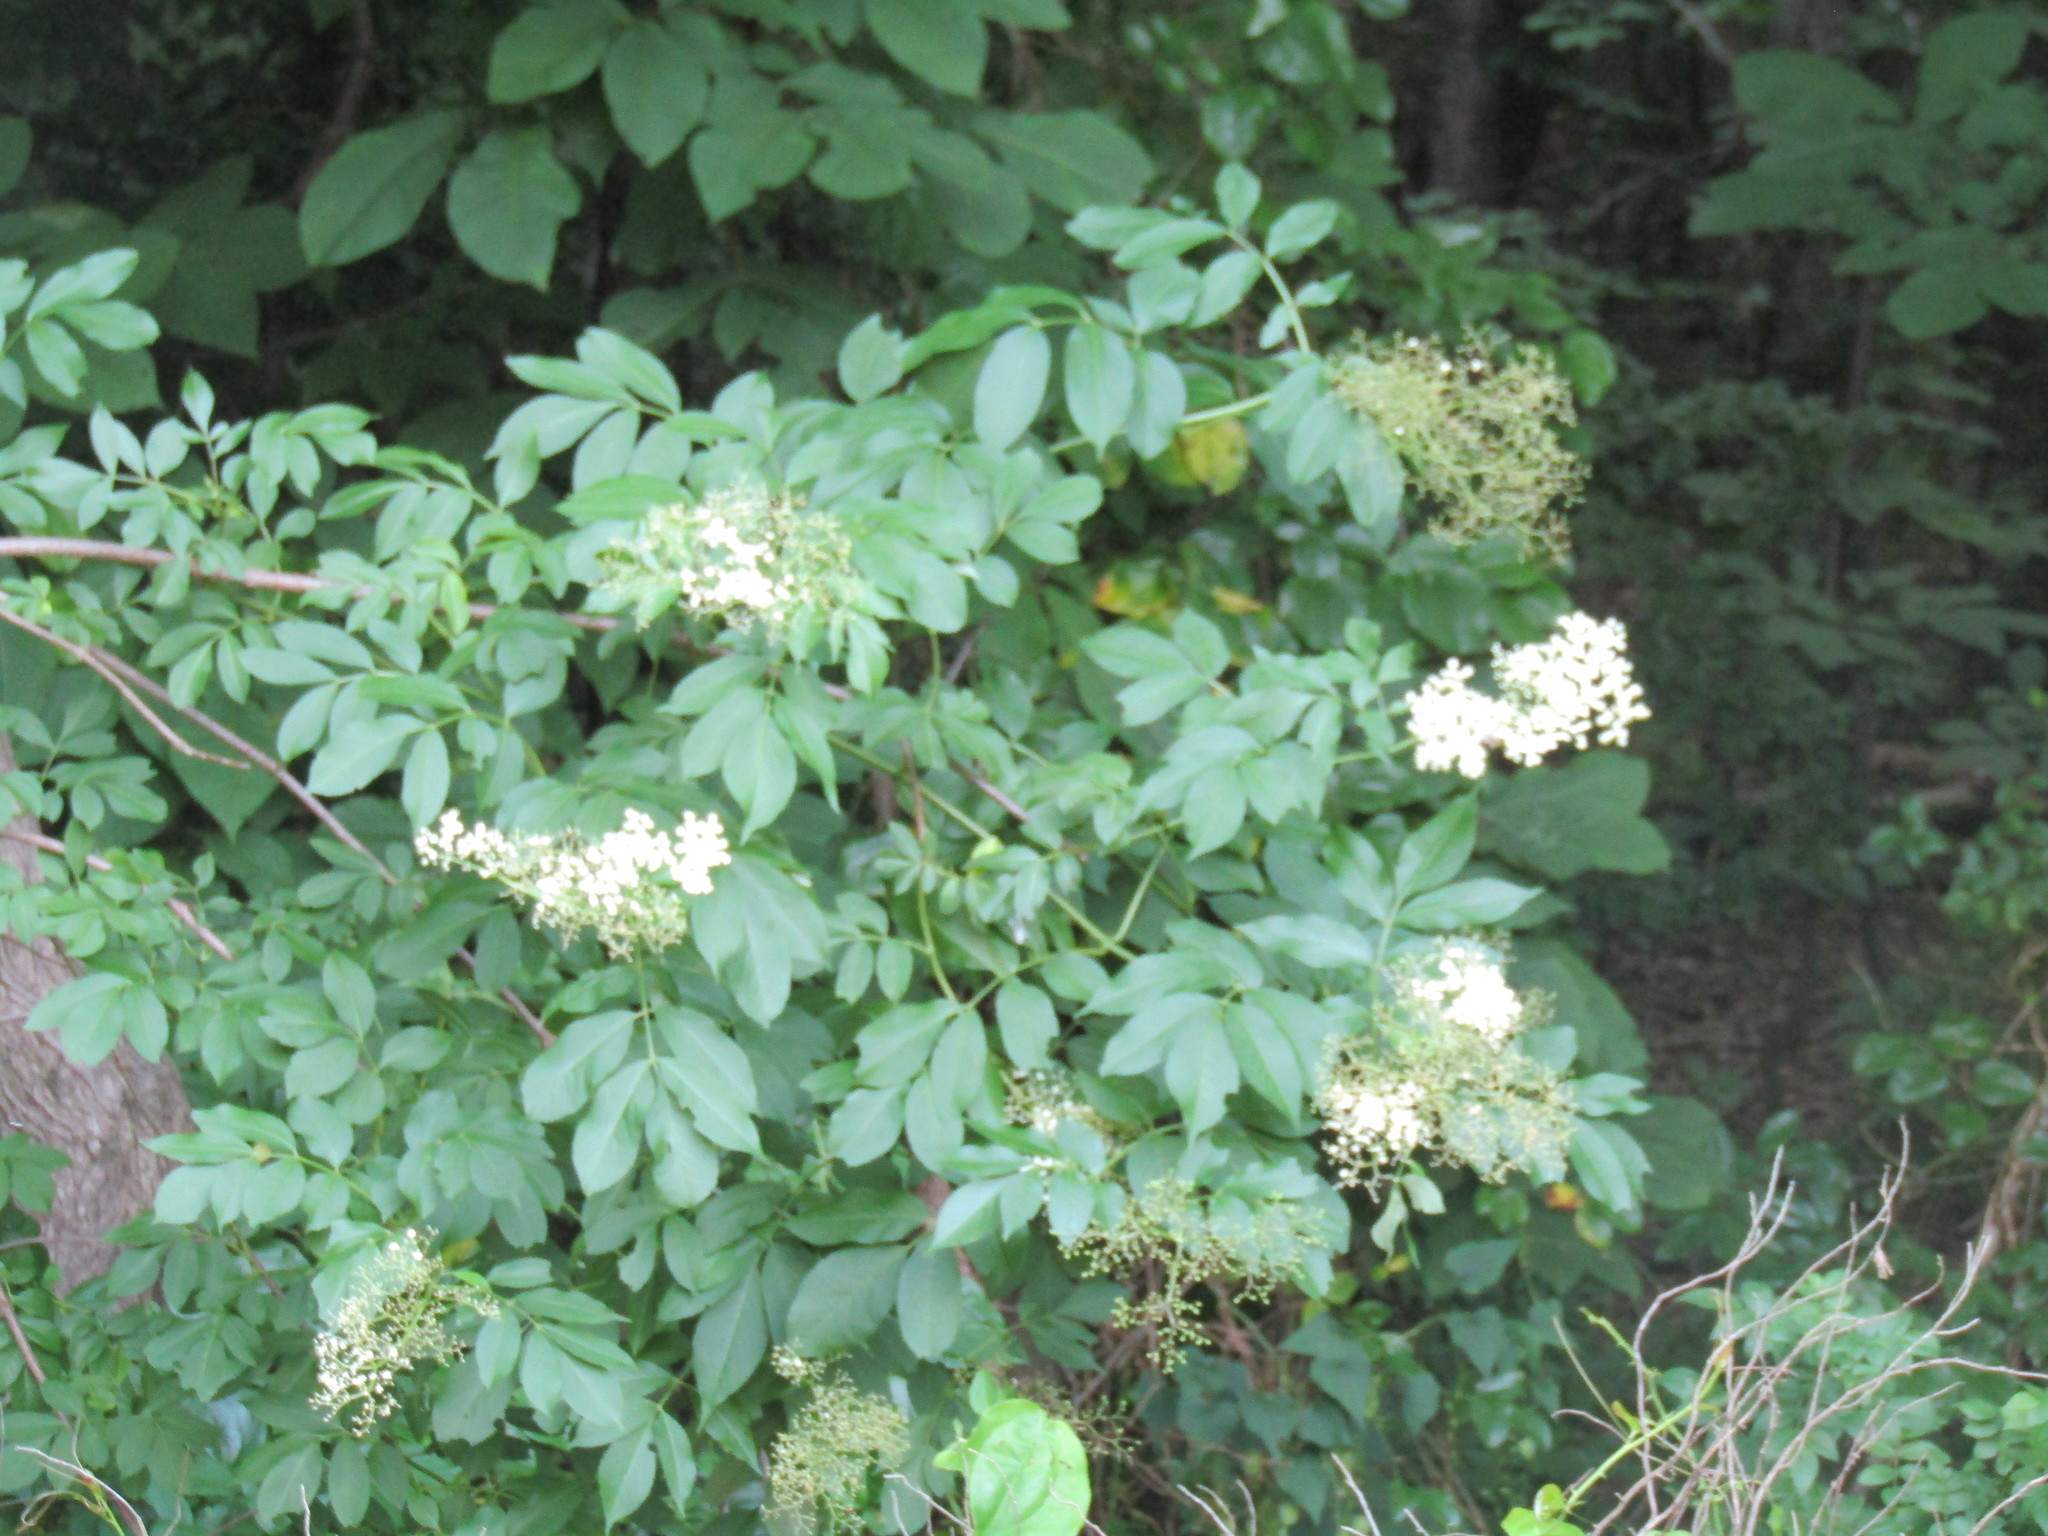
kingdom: Plantae
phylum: Tracheophyta
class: Magnoliopsida
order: Dipsacales
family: Viburnaceae
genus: Sambucus
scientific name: Sambucus canadensis
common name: American elder
